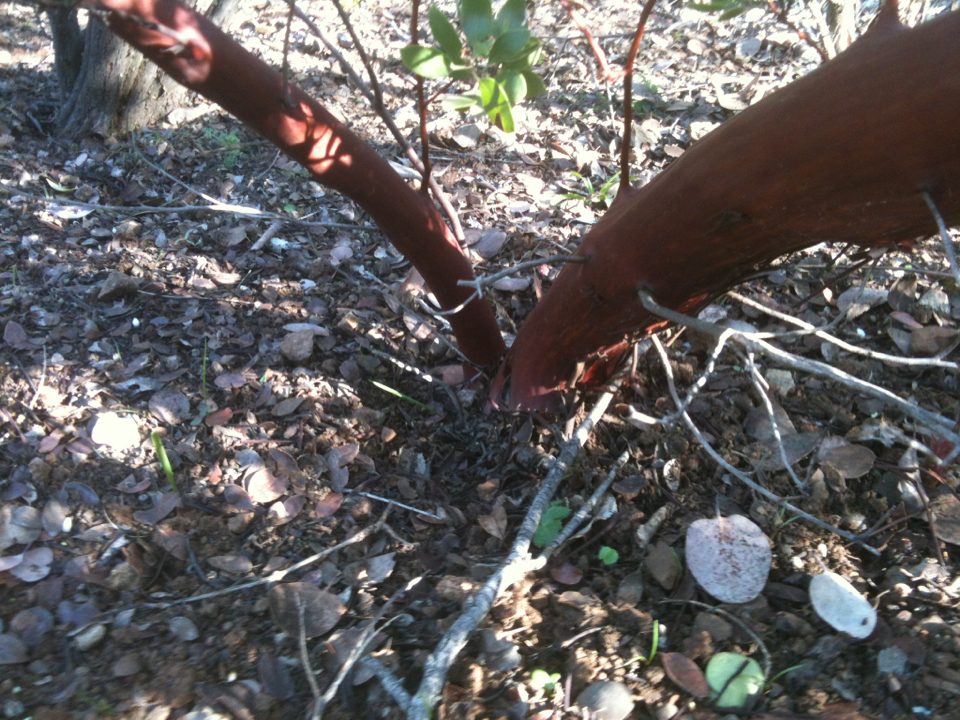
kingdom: Plantae
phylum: Tracheophyta
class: Magnoliopsida
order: Ericales
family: Ericaceae
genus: Arctostaphylos
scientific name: Arctostaphylos manzanita
